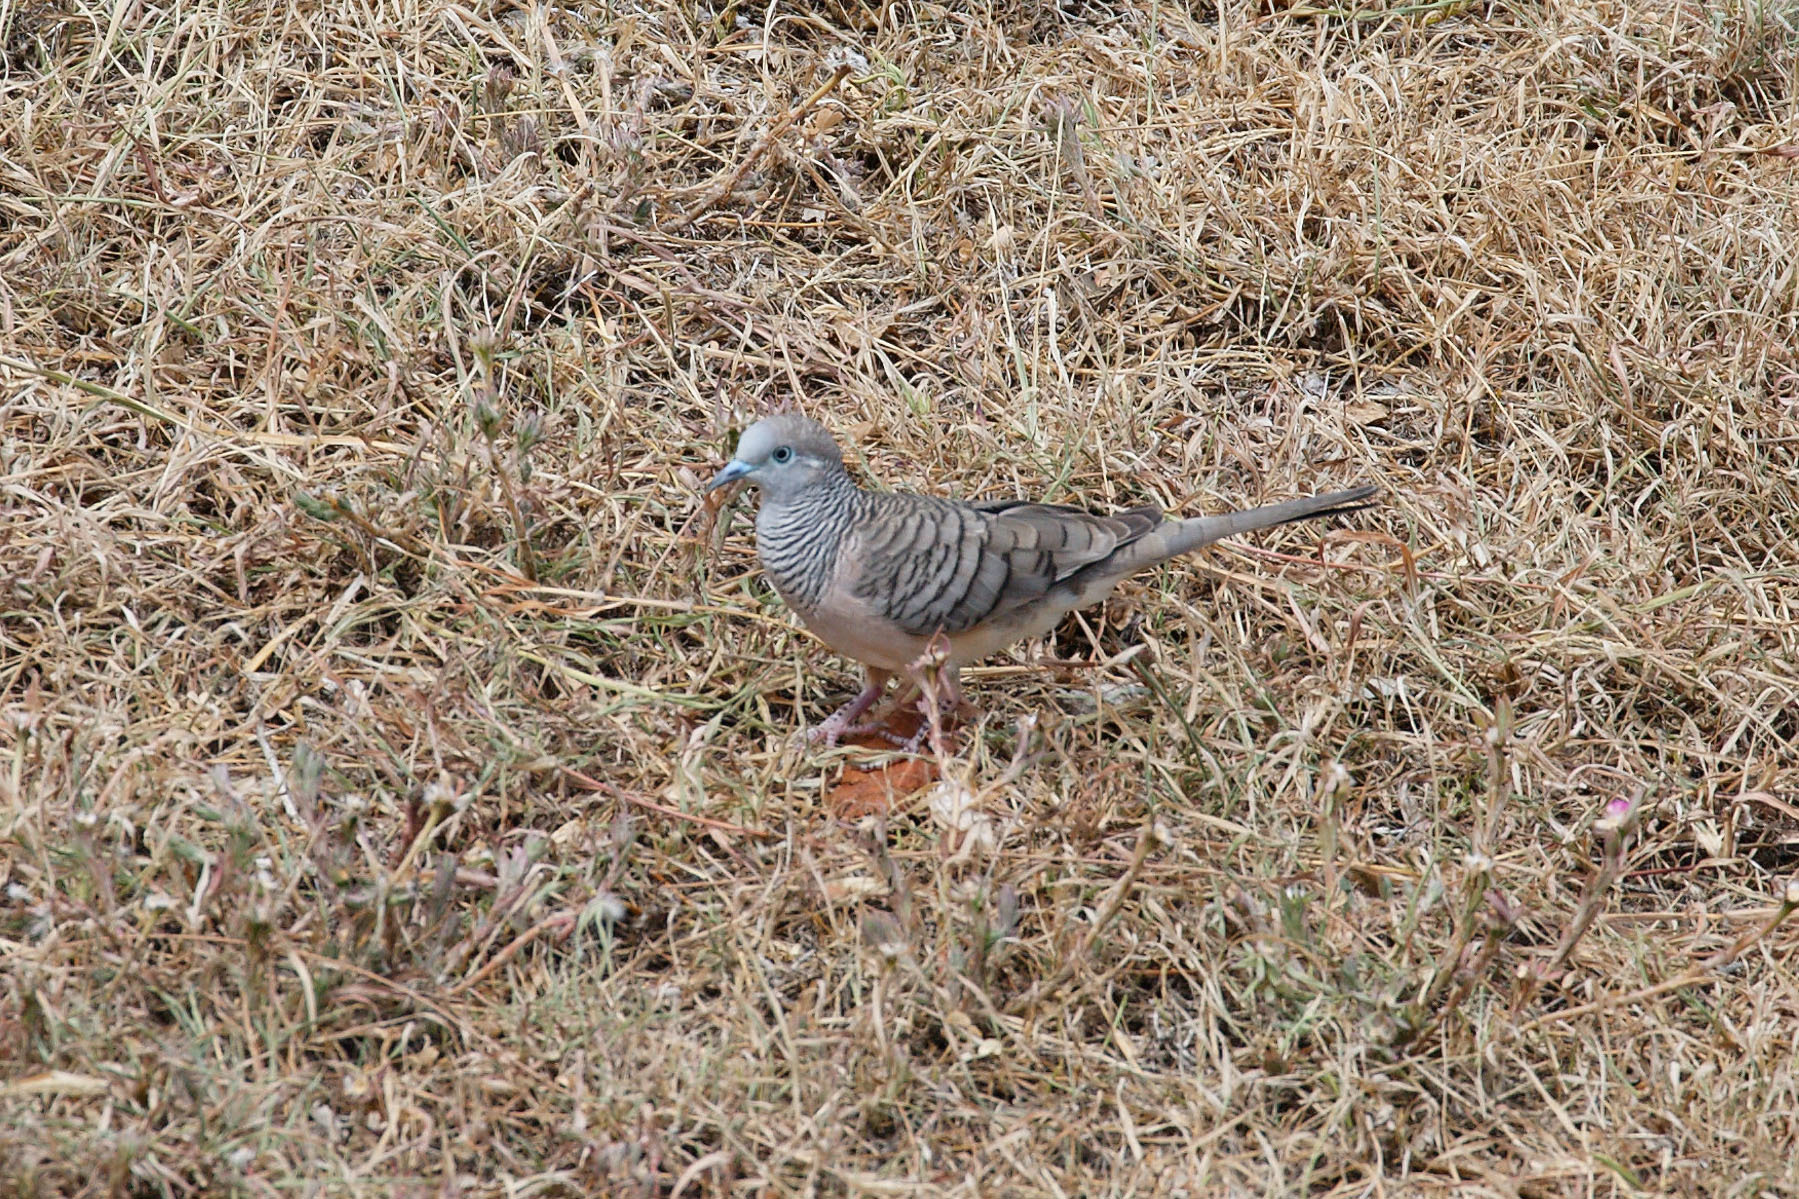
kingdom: Animalia
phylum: Chordata
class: Aves
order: Columbiformes
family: Columbidae
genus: Geopelia
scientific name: Geopelia placida
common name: Peaceful dove
